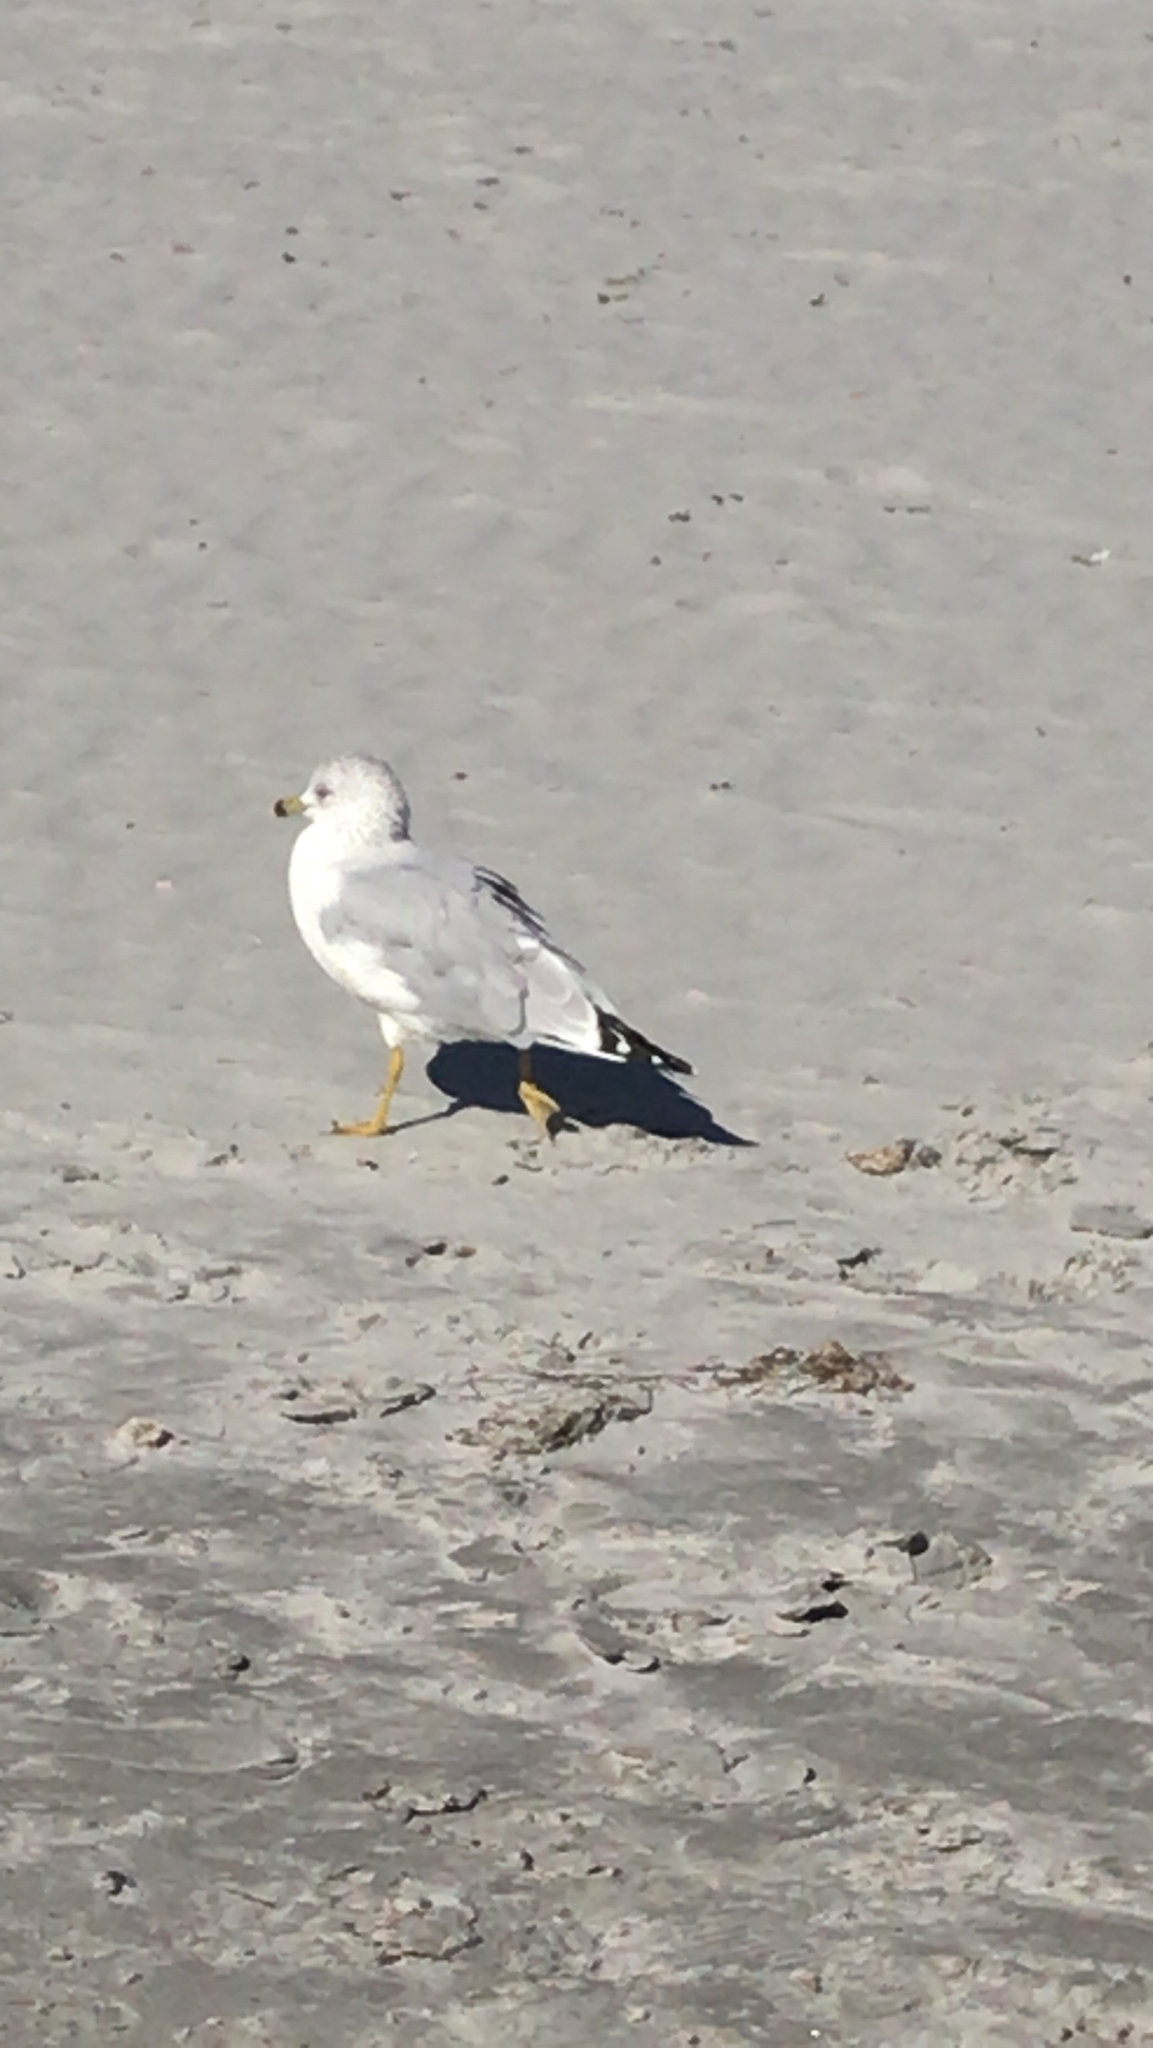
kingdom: Animalia
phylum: Chordata
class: Aves
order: Charadriiformes
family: Laridae
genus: Larus
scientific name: Larus delawarensis
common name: Ring-billed gull
